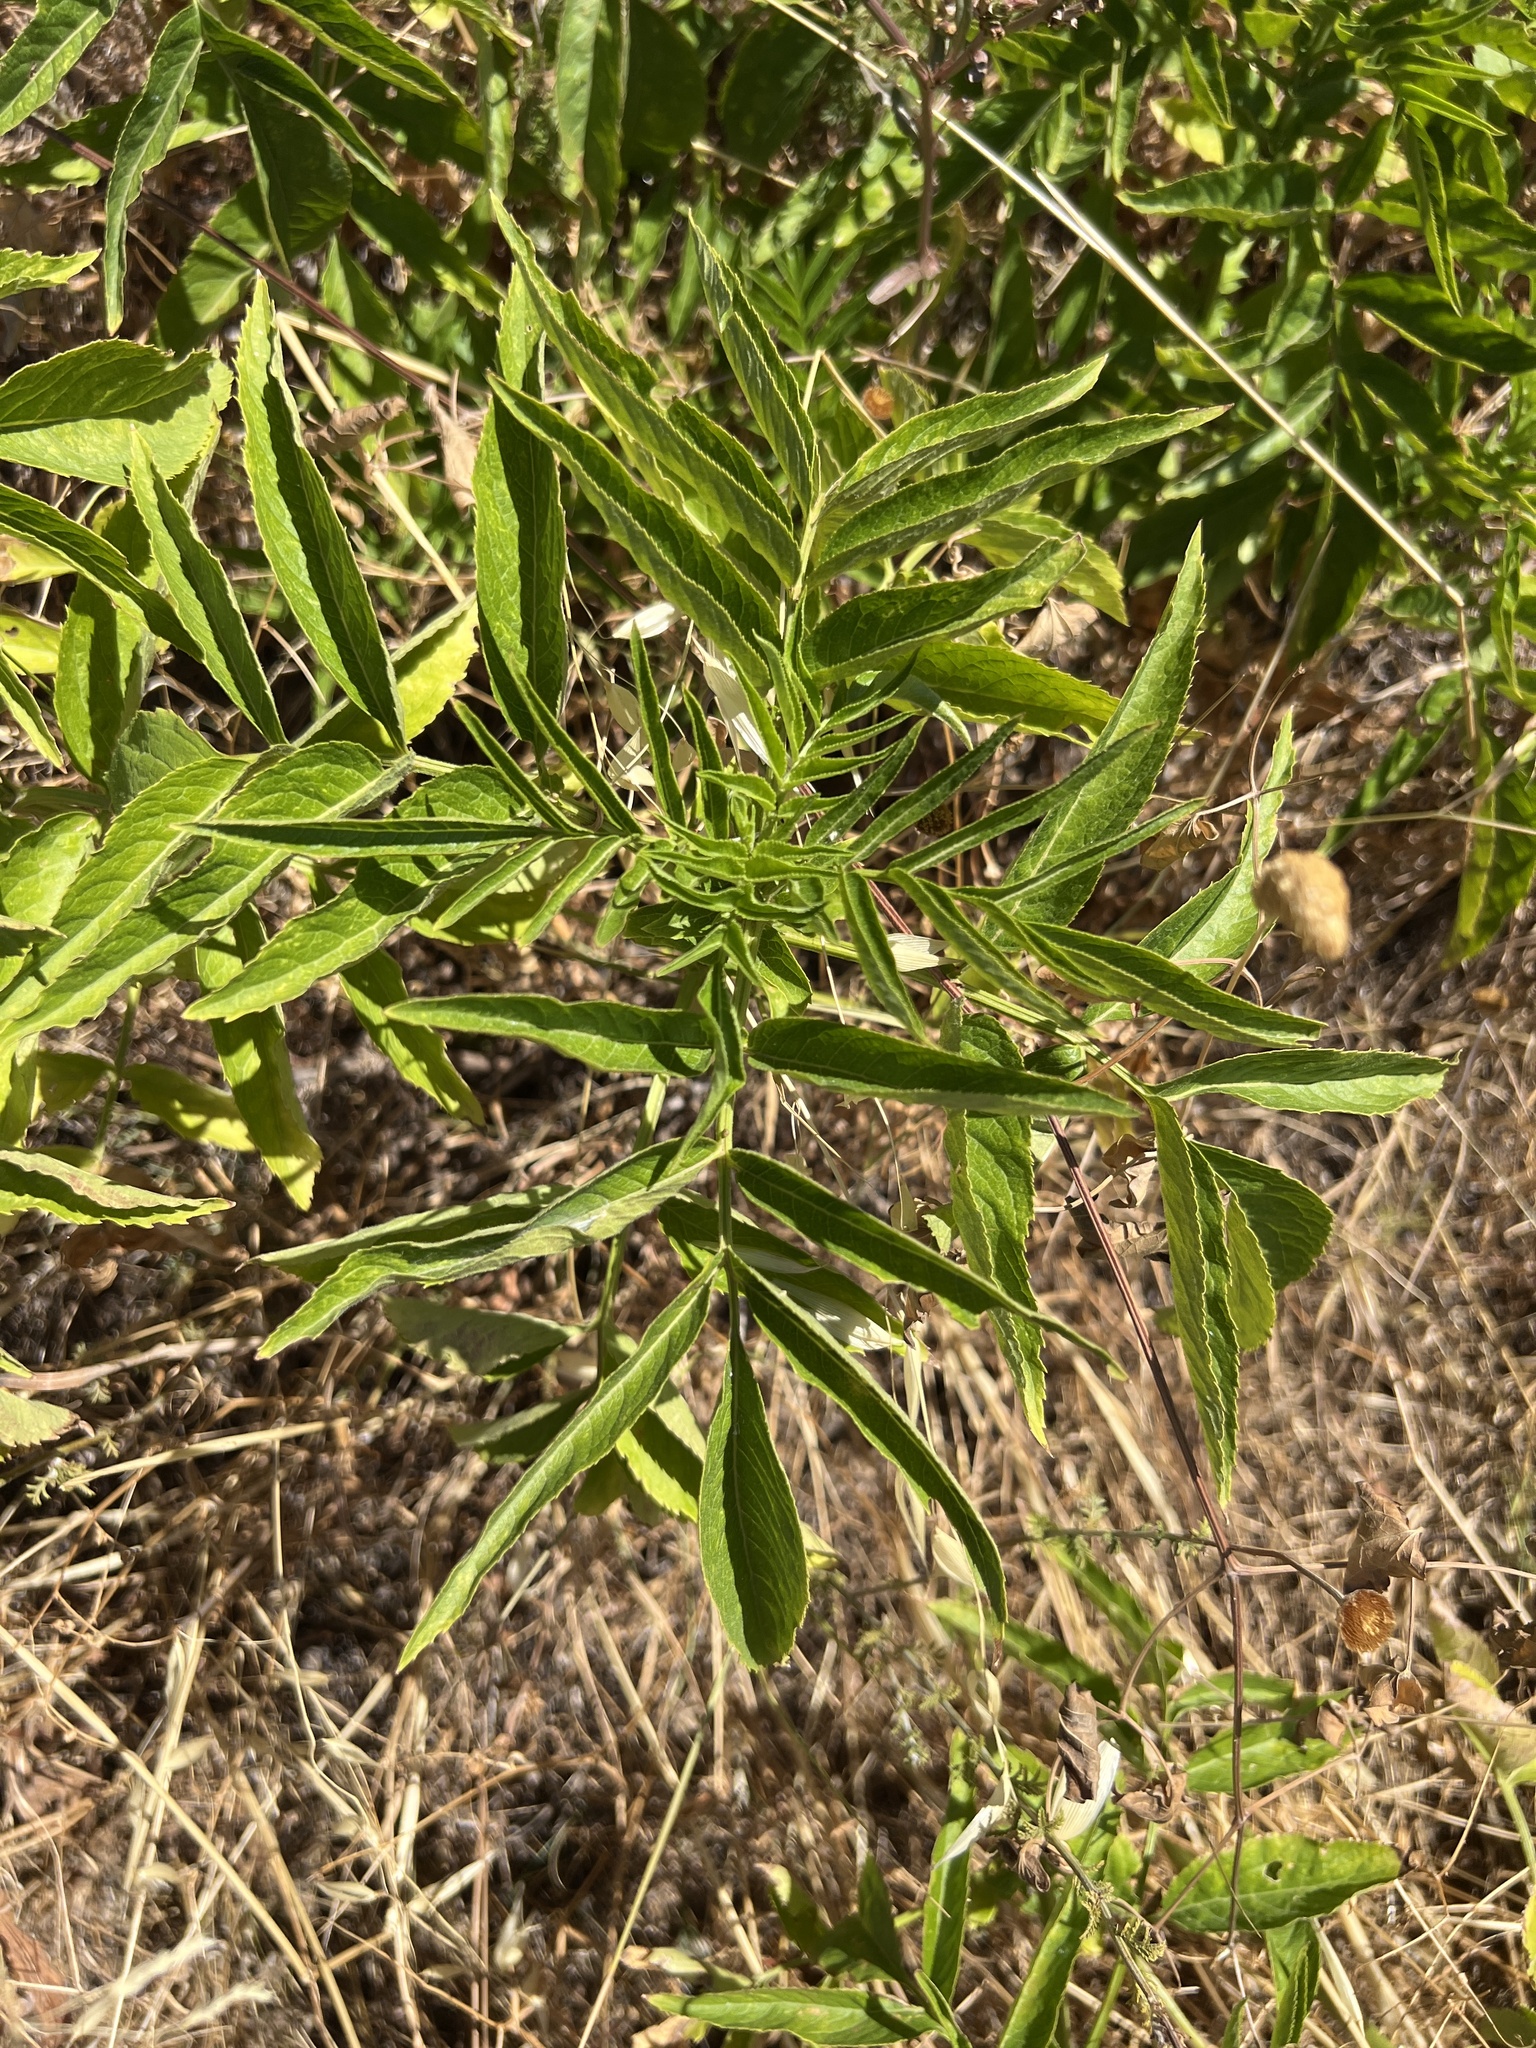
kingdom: Plantae
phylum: Tracheophyta
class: Magnoliopsida
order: Dipsacales
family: Viburnaceae
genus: Sambucus
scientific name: Sambucus ebulus
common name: Dwarf elder
